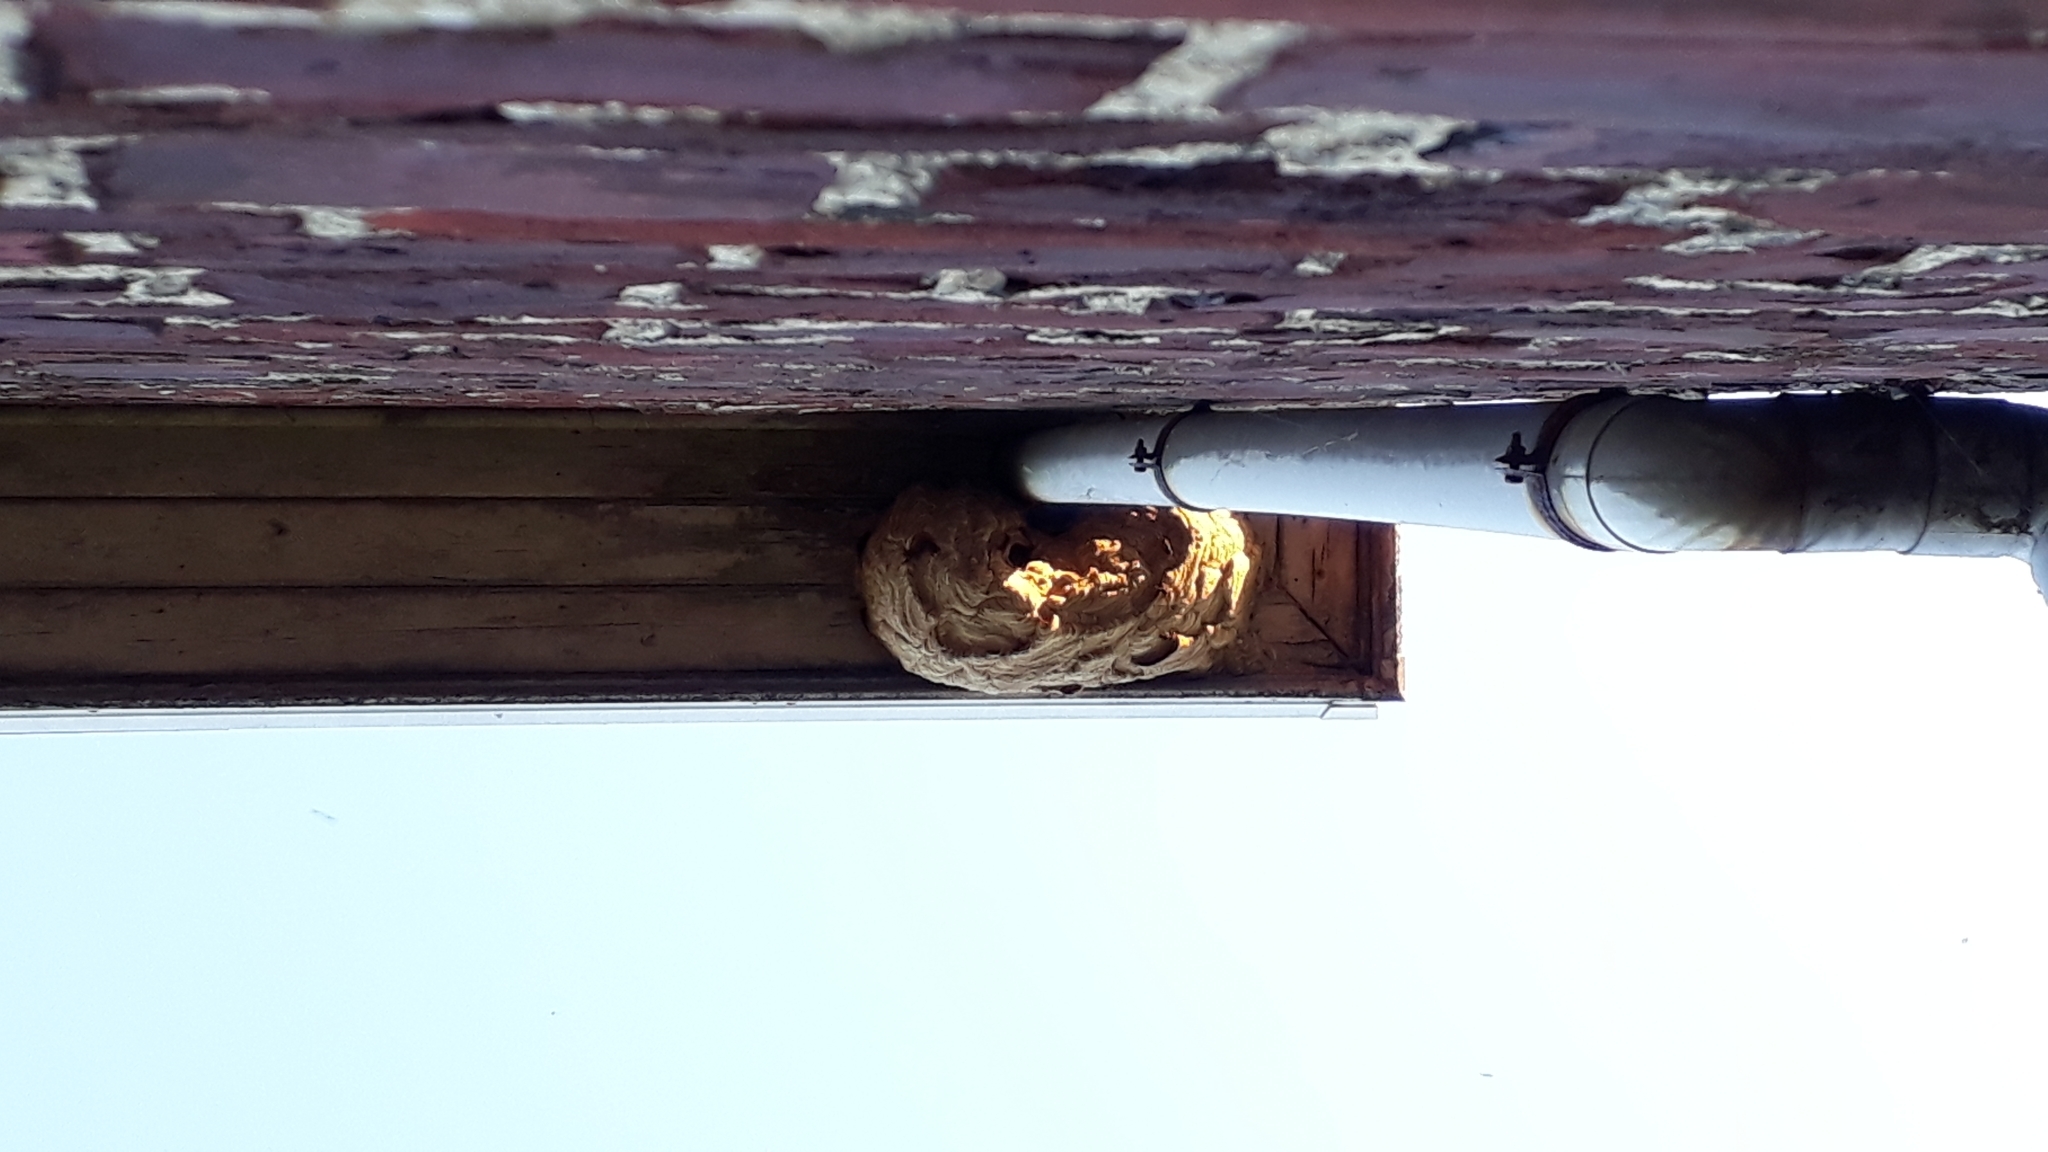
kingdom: Animalia
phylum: Arthropoda
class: Insecta
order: Hymenoptera
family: Vespidae
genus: Vespa
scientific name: Vespa velutina
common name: Asian hornet
